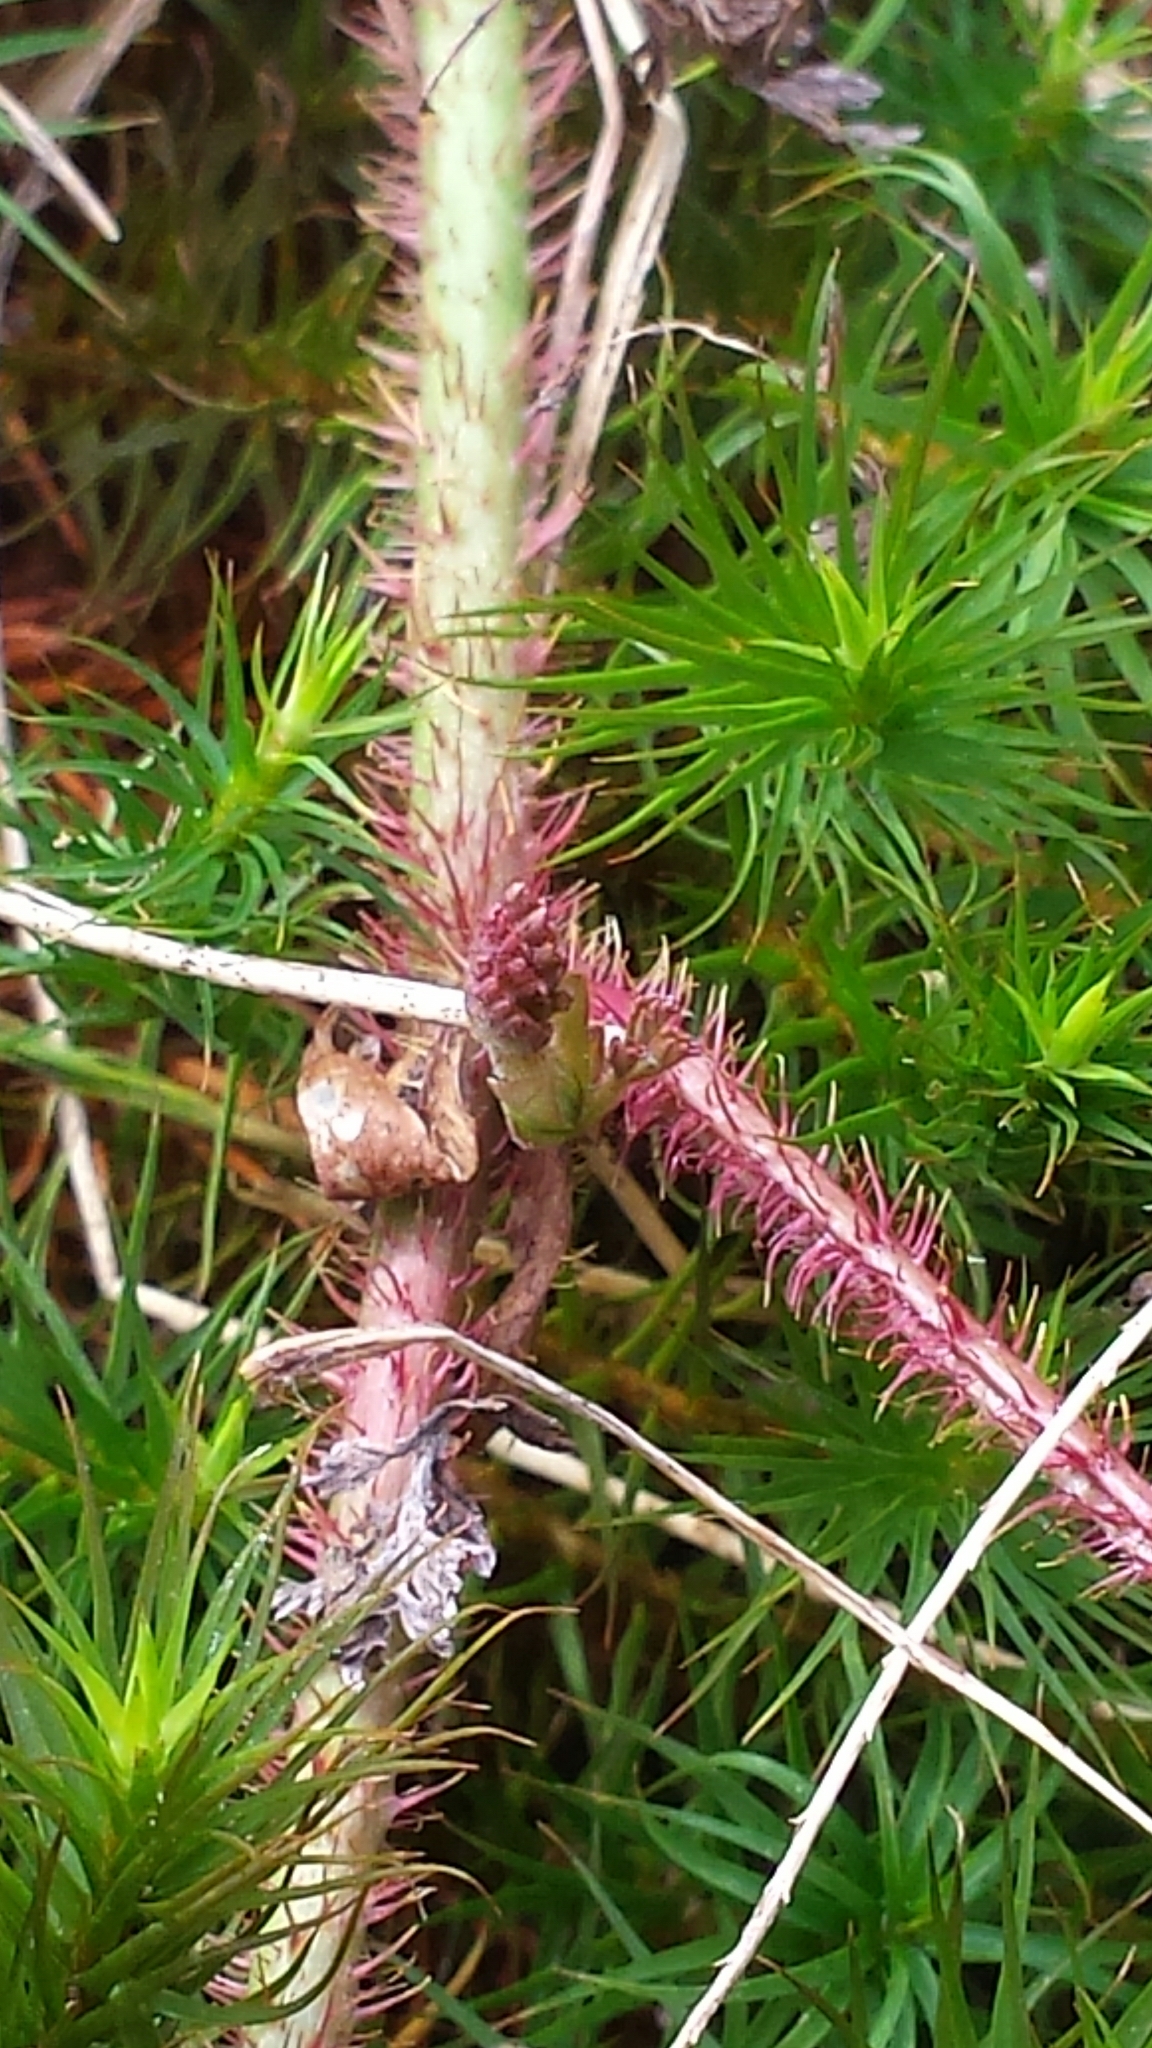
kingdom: Plantae
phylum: Tracheophyta
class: Magnoliopsida
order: Rosales
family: Rosaceae
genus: Rubus
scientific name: Rubus hispidus
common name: Running blackberry
